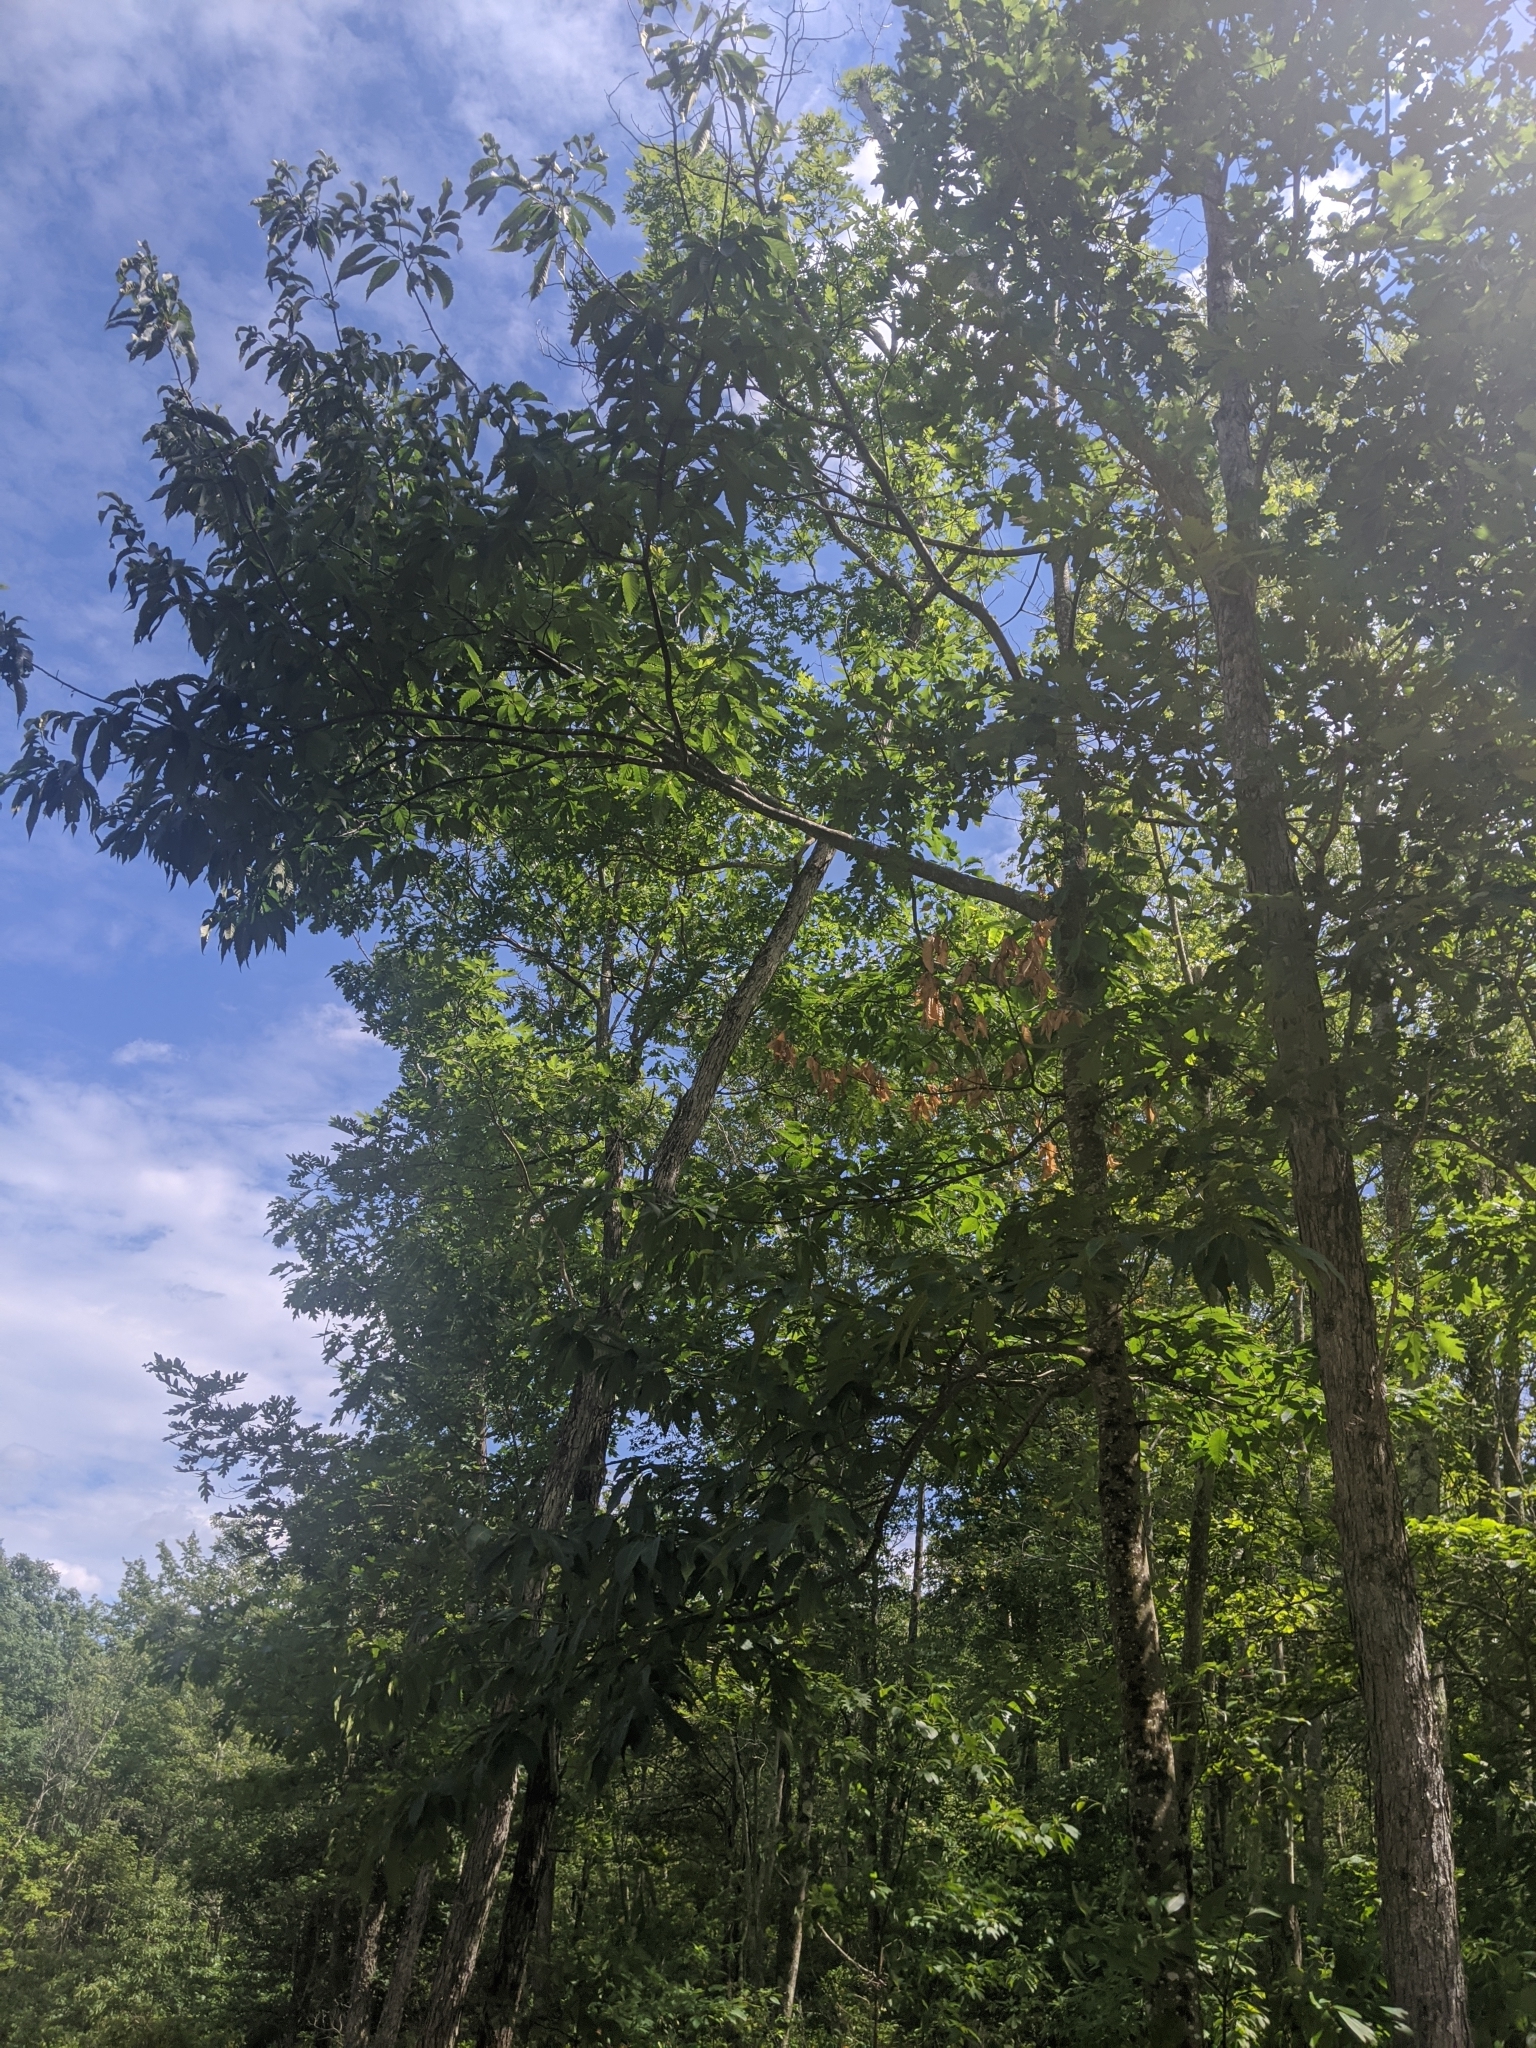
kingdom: Plantae
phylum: Tracheophyta
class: Magnoliopsida
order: Fagales
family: Fagaceae
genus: Castanea
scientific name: Castanea dentata
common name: American chestnut
